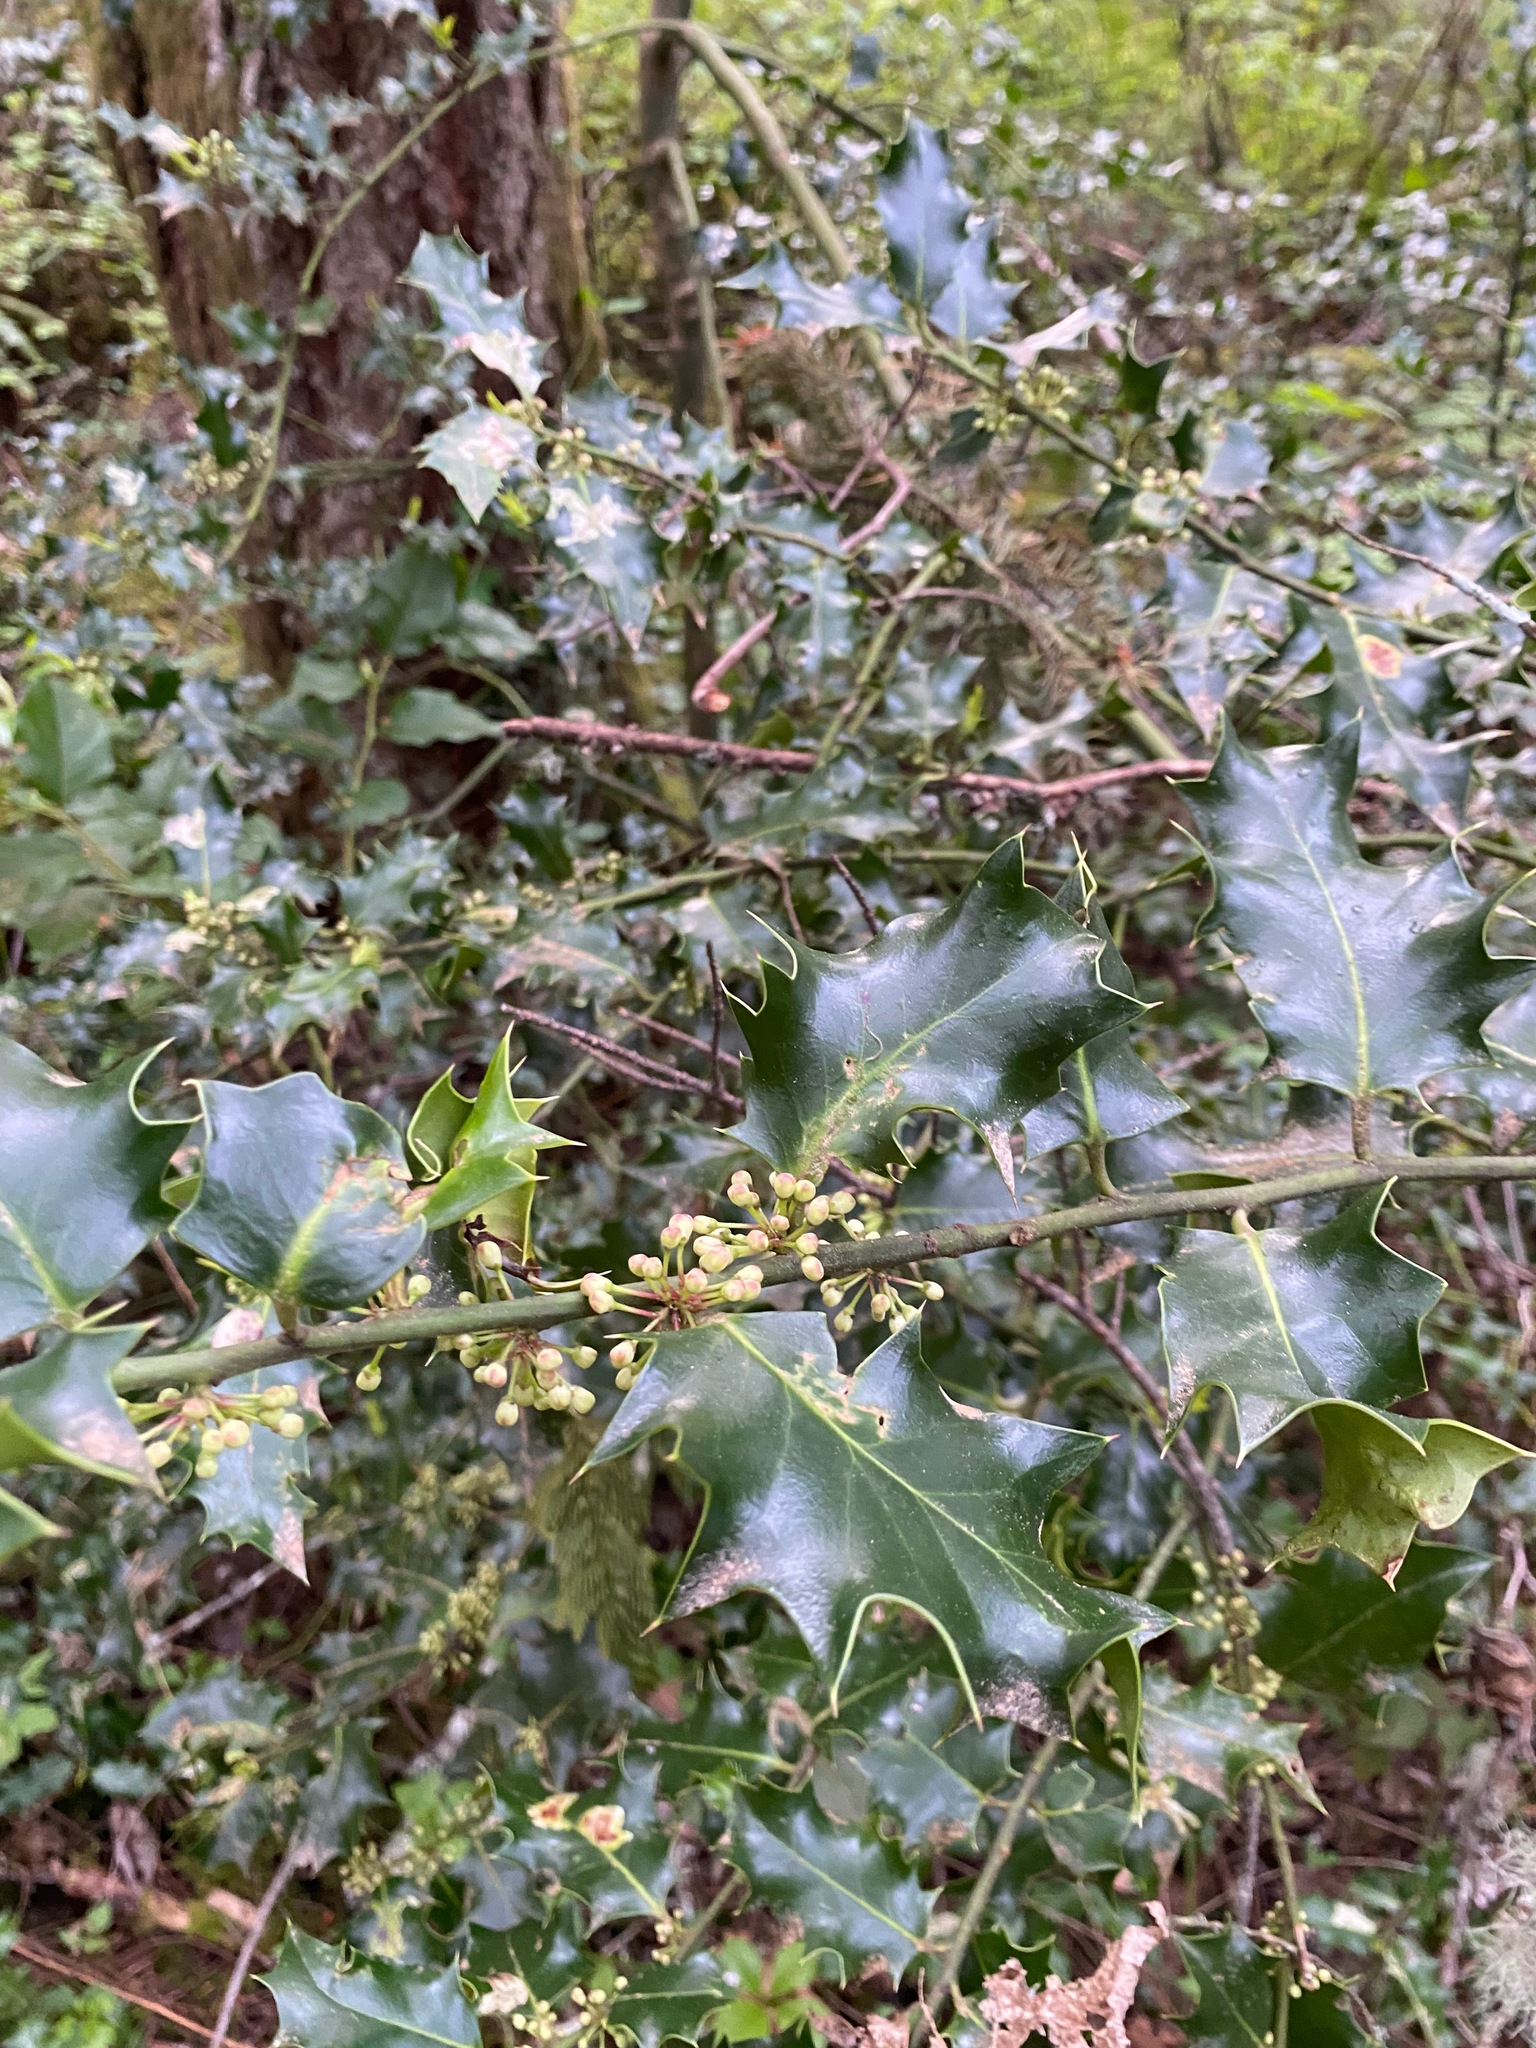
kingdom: Plantae
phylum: Tracheophyta
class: Magnoliopsida
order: Aquifoliales
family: Aquifoliaceae
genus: Ilex
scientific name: Ilex aquifolium
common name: English holly
